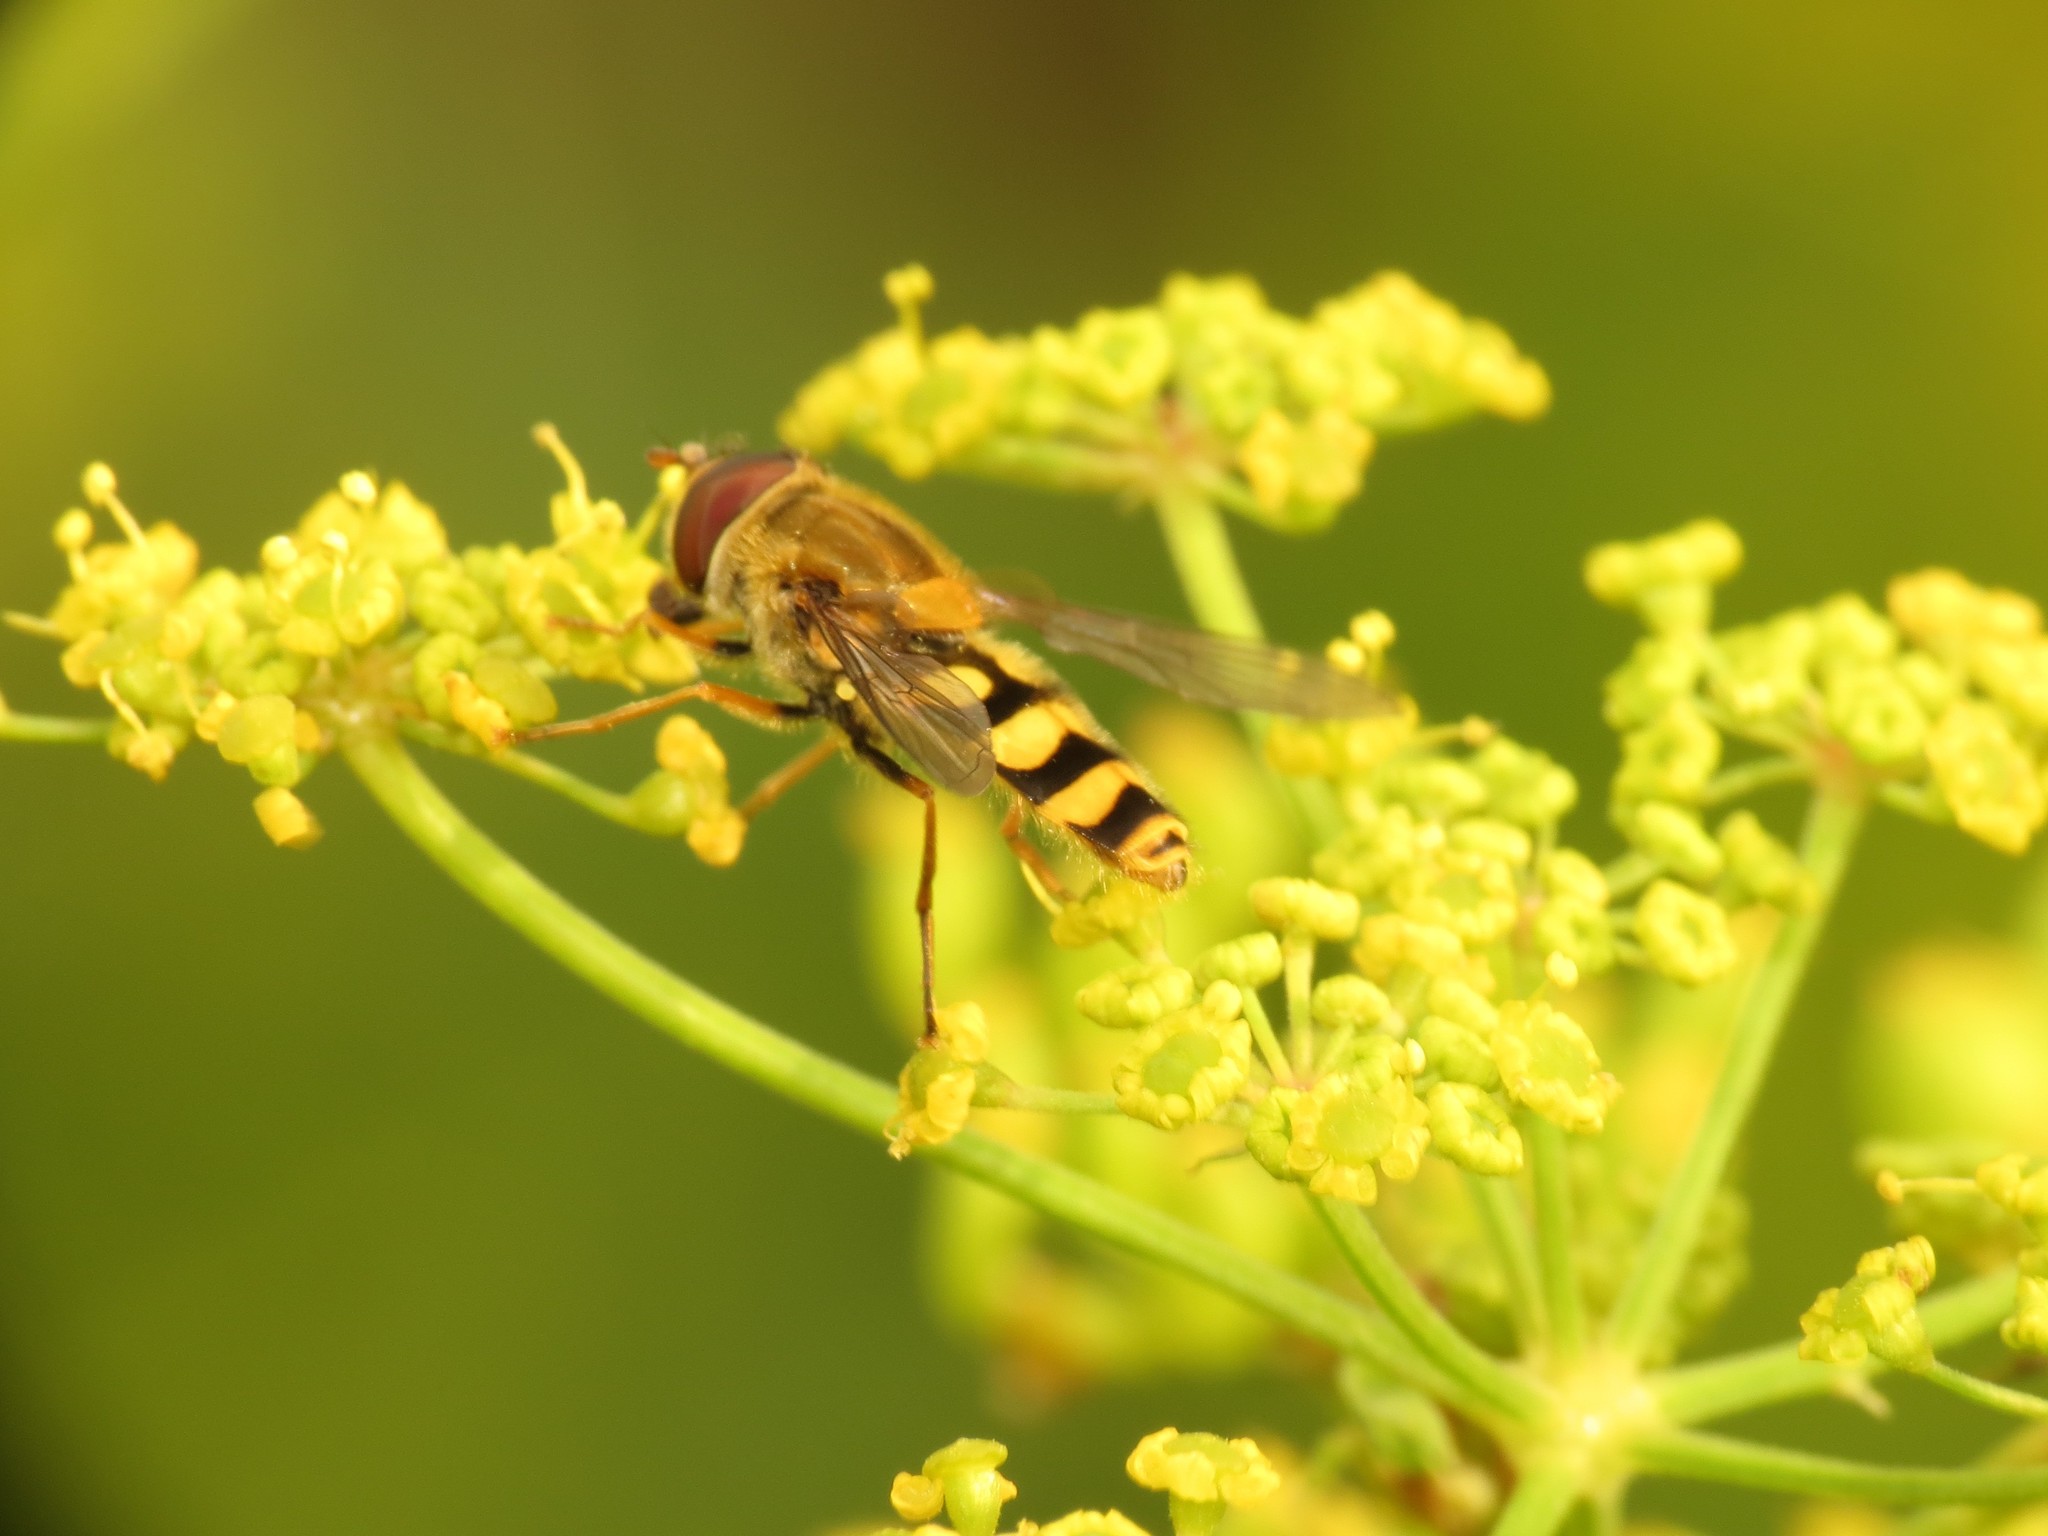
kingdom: Animalia
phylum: Arthropoda
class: Insecta
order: Diptera
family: Syrphidae
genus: Syrphus
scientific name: Syrphus
